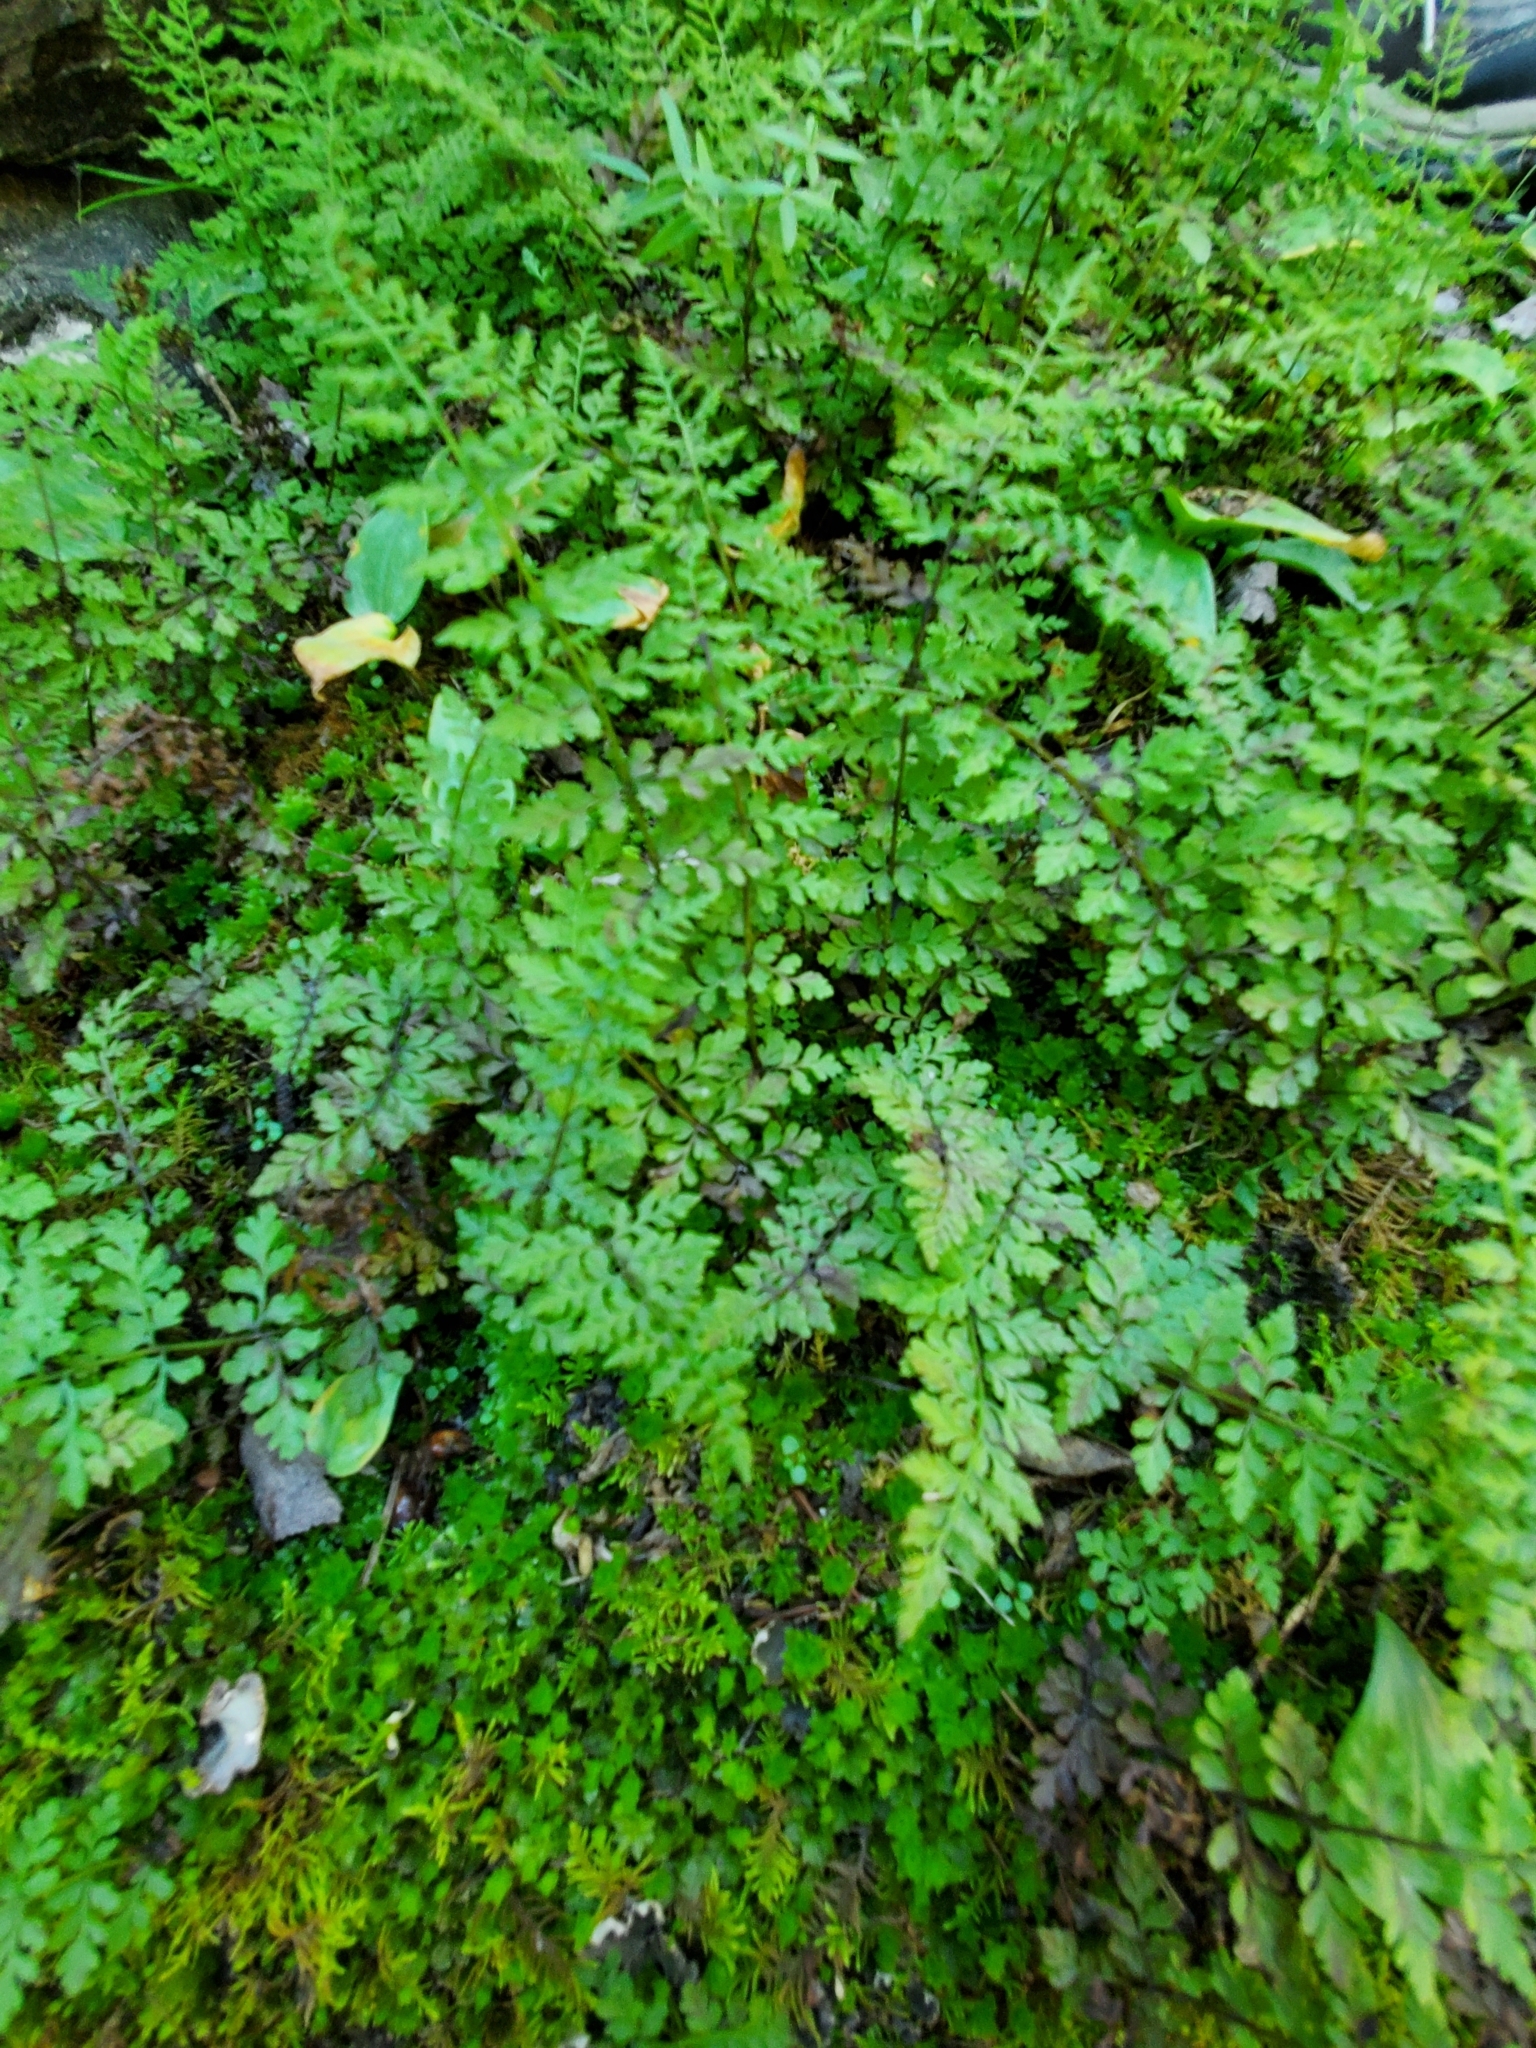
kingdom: Plantae
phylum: Tracheophyta
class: Polypodiopsida
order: Polypodiales
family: Cystopteridaceae
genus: Cystopteris
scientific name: Cystopteris fragilis
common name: Brittle bladder fern
